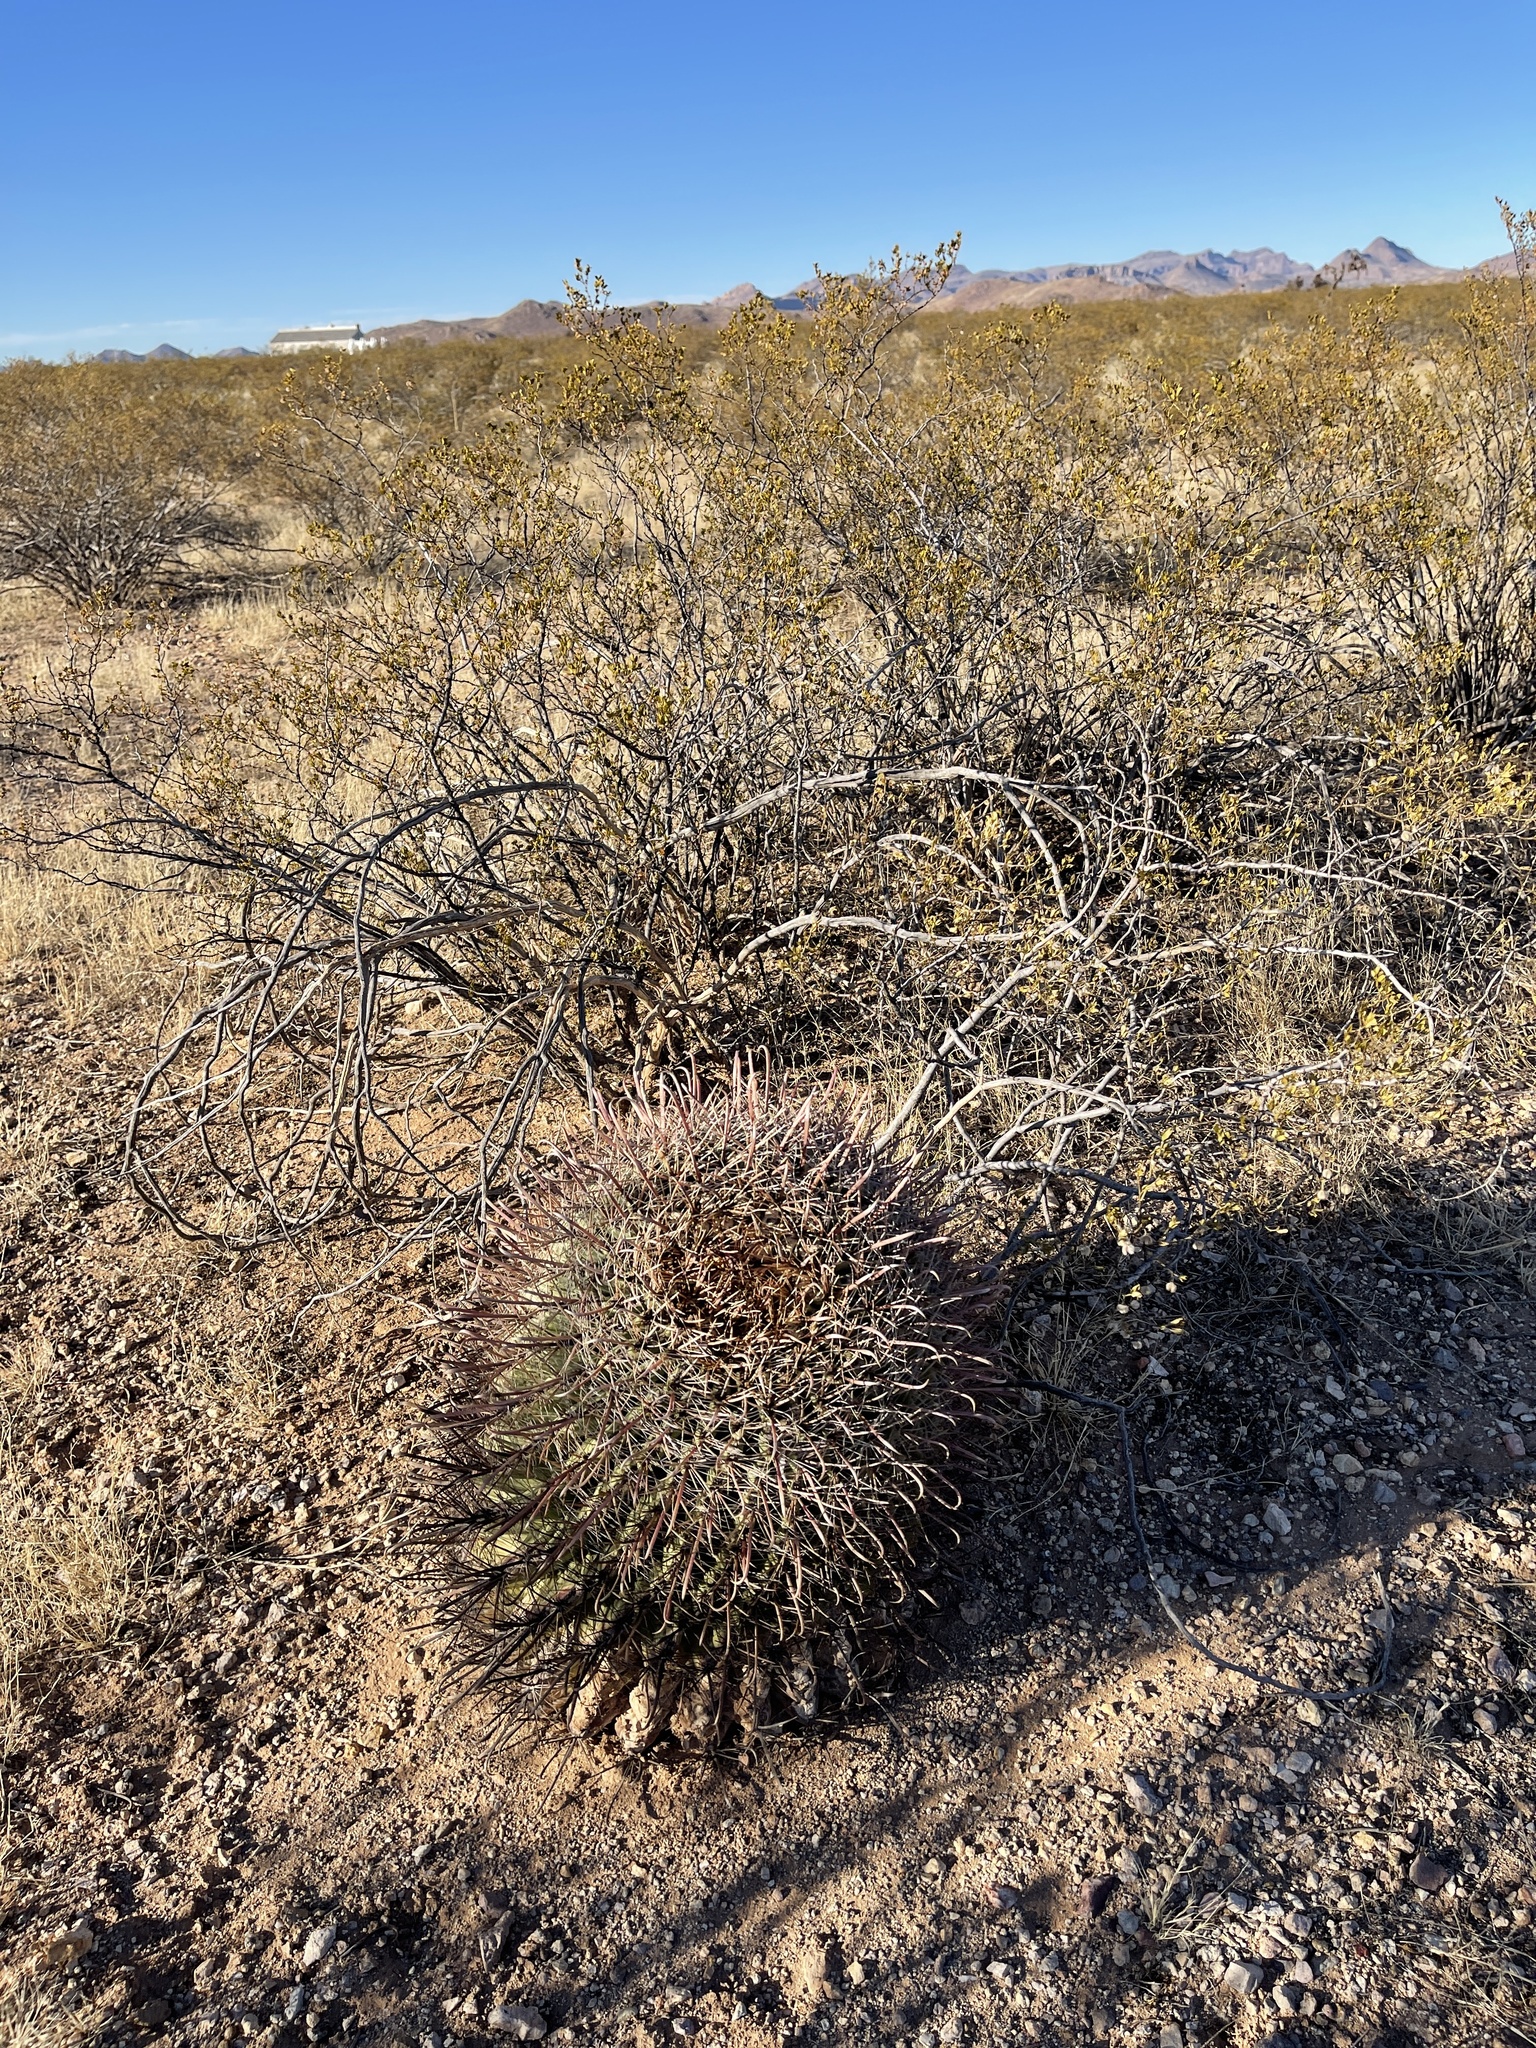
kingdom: Plantae
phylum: Tracheophyta
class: Magnoliopsida
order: Caryophyllales
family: Cactaceae
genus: Ferocactus
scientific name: Ferocactus wislizeni
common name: Candy barrel cactus
